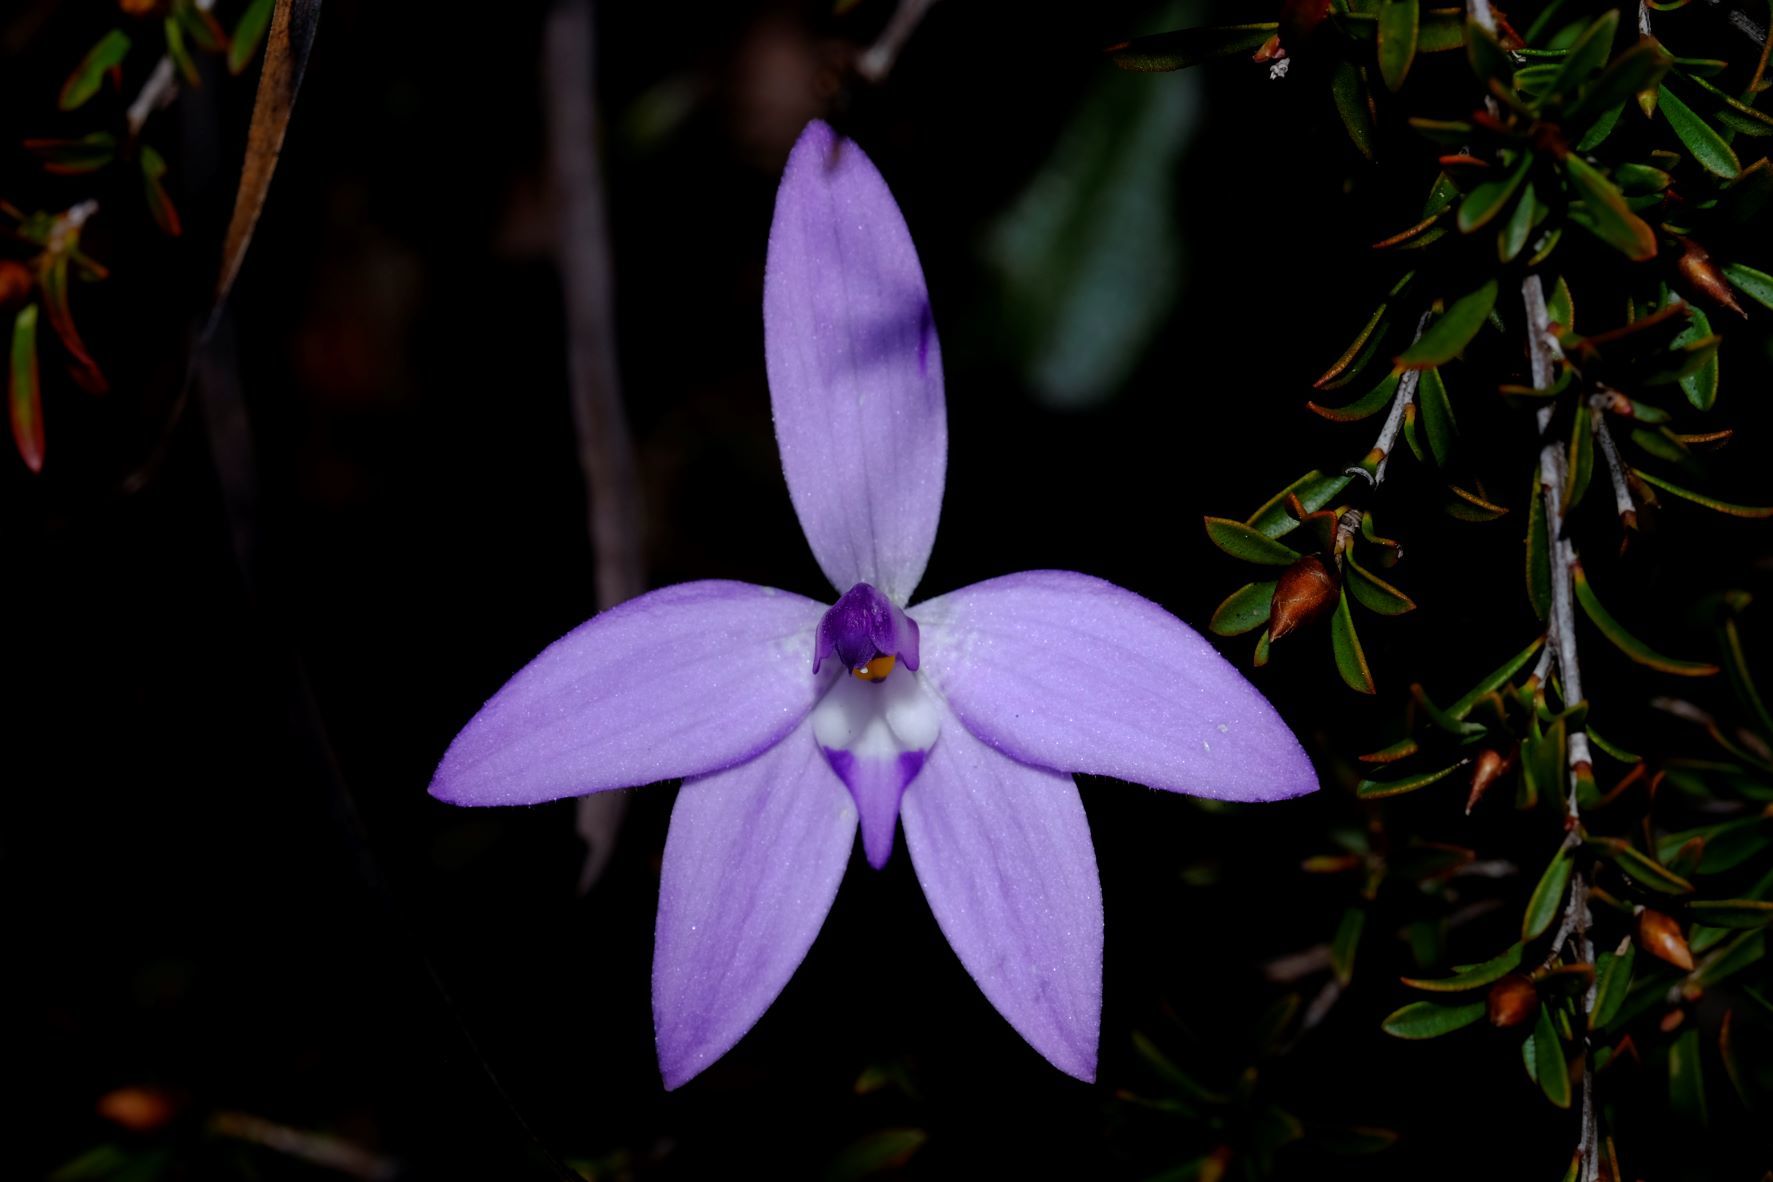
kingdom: Plantae
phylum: Tracheophyta
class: Liliopsida
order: Asparagales
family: Orchidaceae
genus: Caladenia
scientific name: Caladenia major
